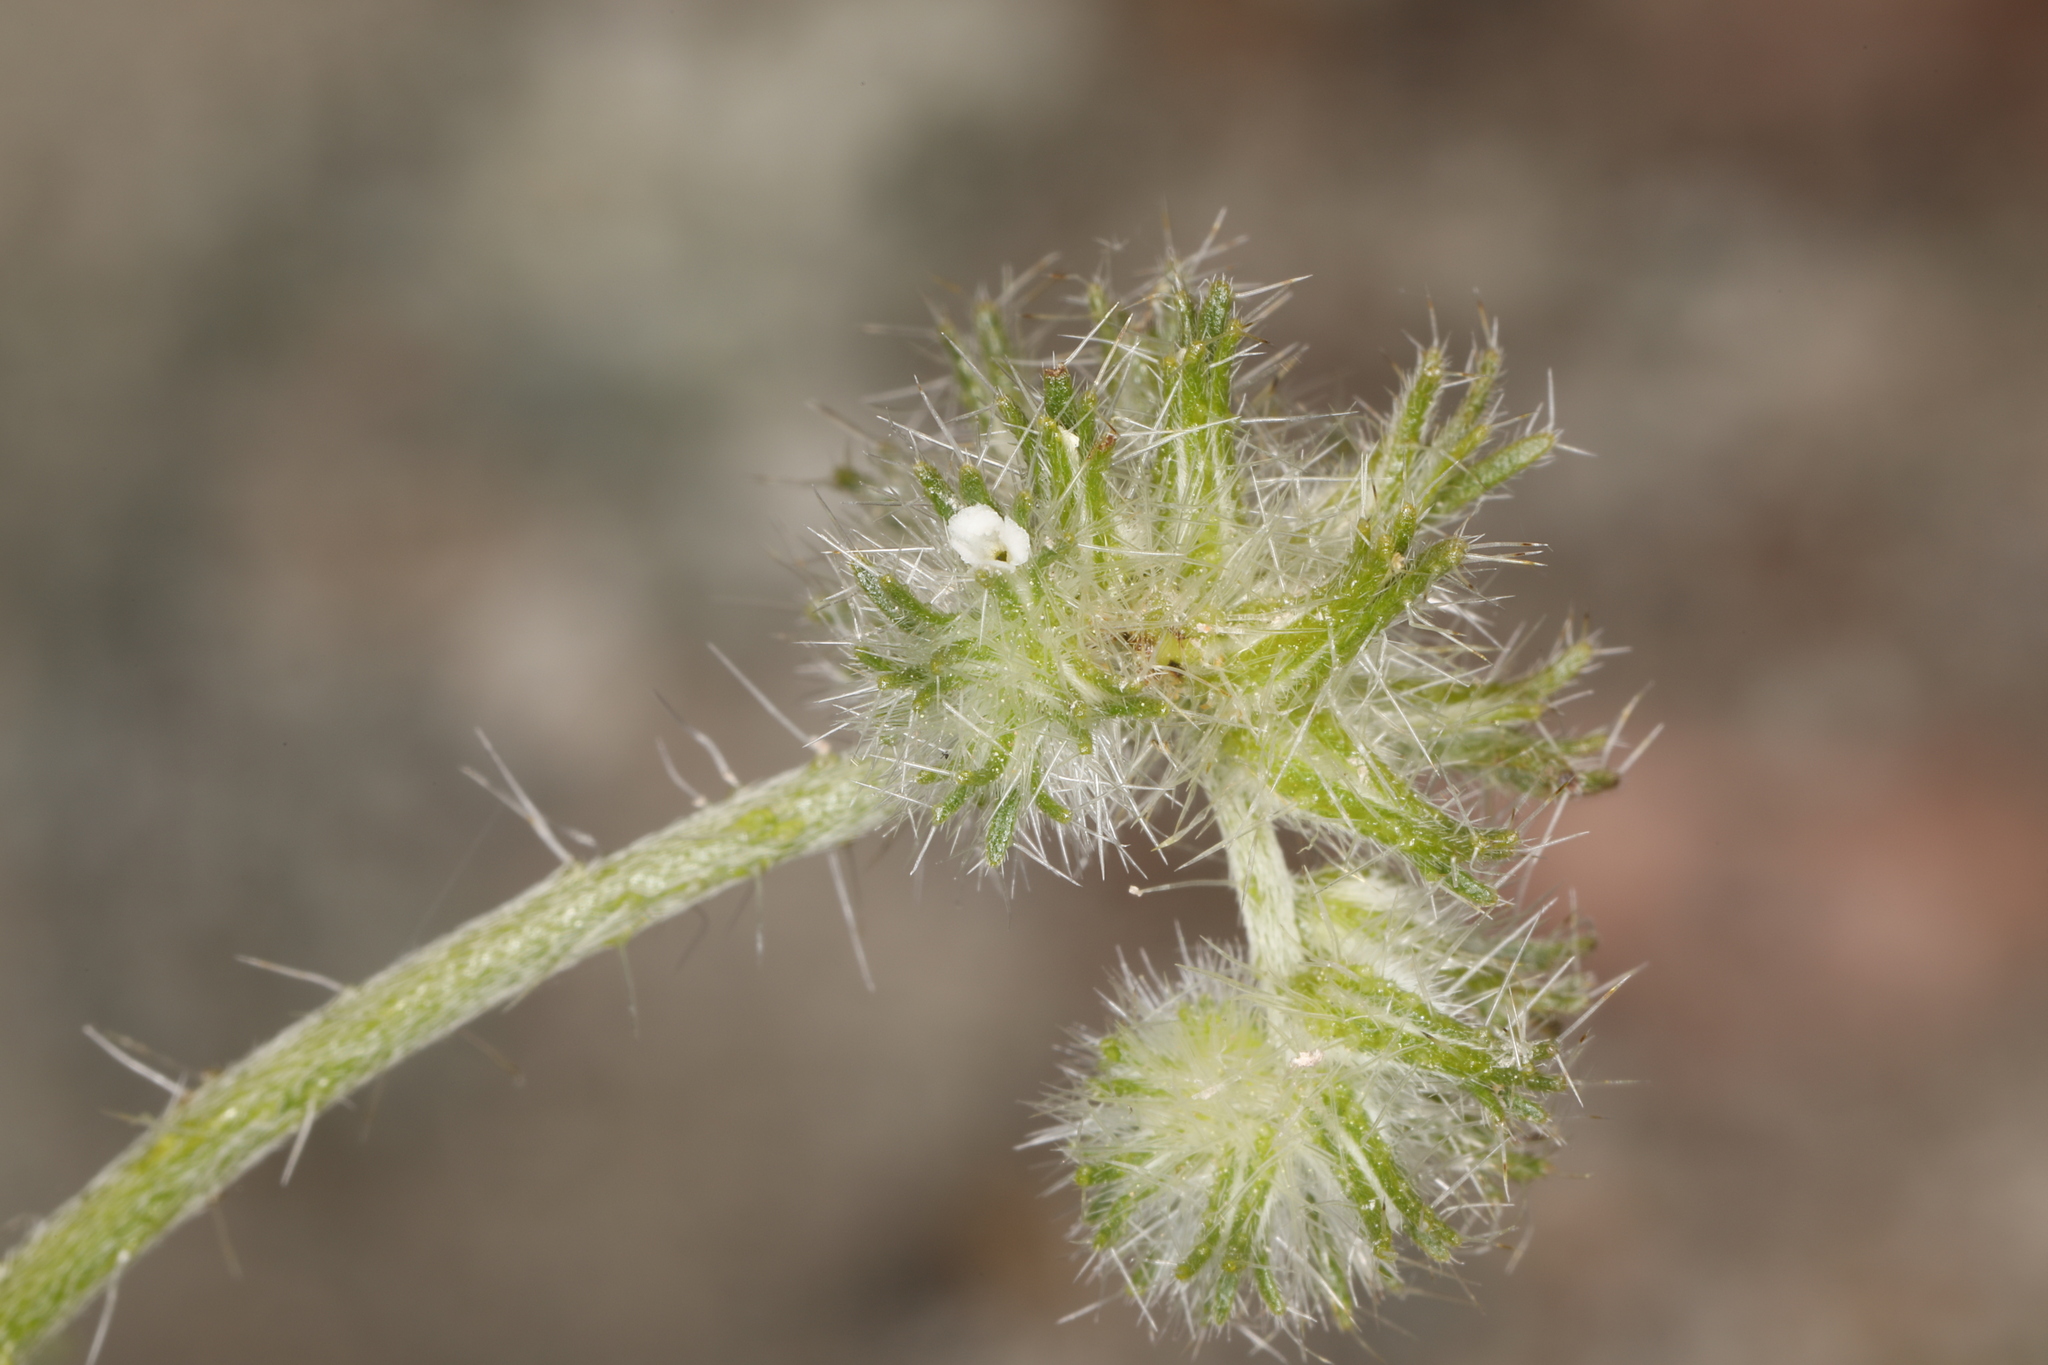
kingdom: Plantae
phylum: Tracheophyta
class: Magnoliopsida
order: Boraginales
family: Boraginaceae
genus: Cryptantha
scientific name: Cryptantha nevadensis
